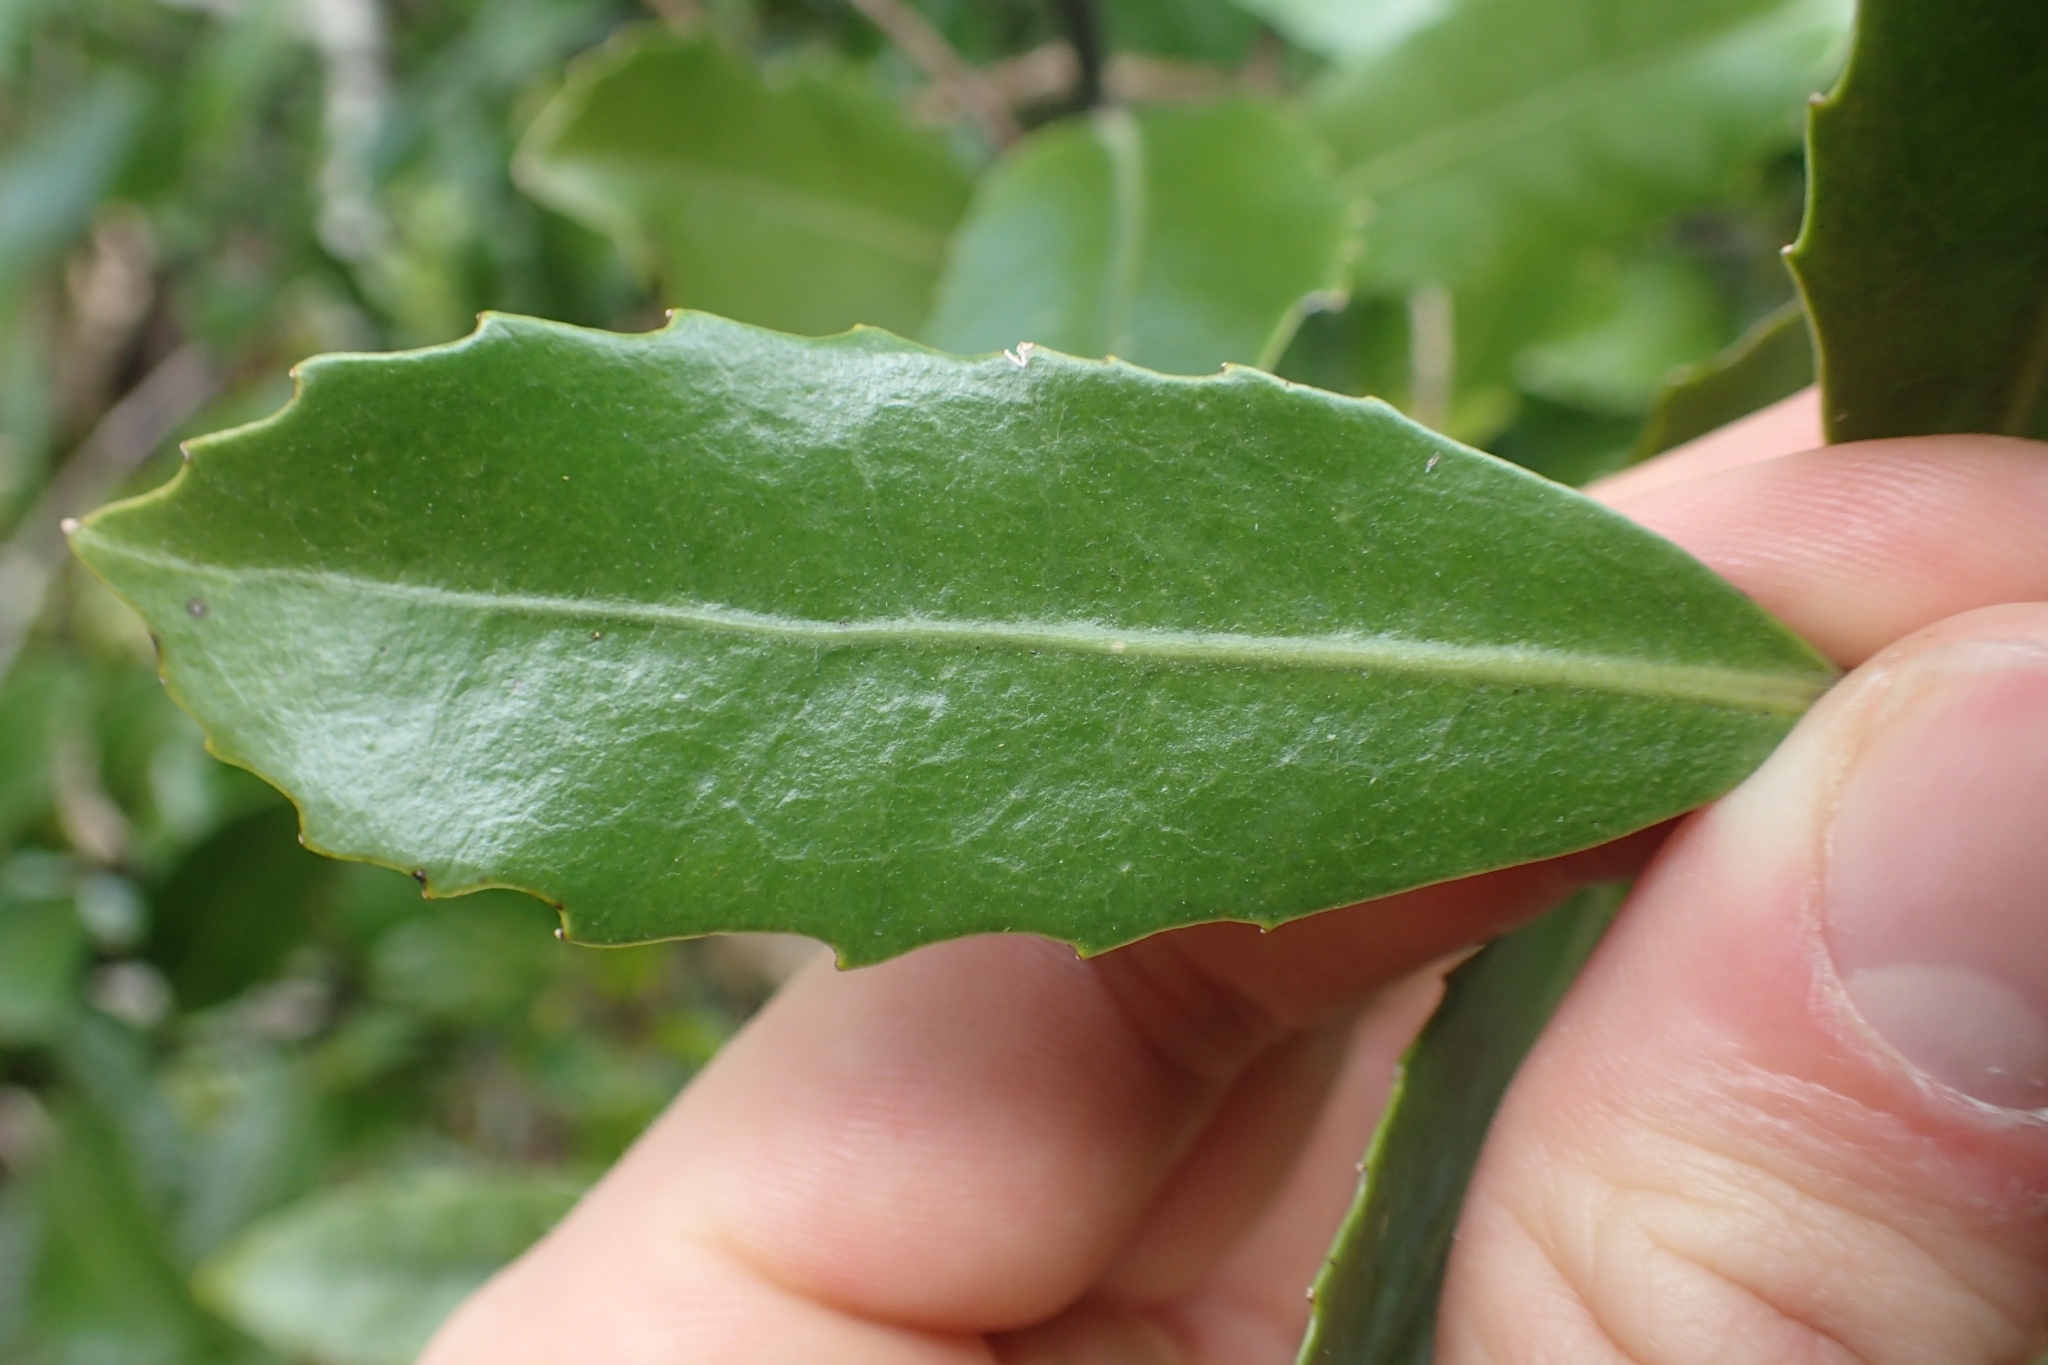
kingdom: Plantae
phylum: Tracheophyta
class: Magnoliopsida
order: Laurales
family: Monimiaceae
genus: Hedycarya
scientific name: Hedycarya arborea
